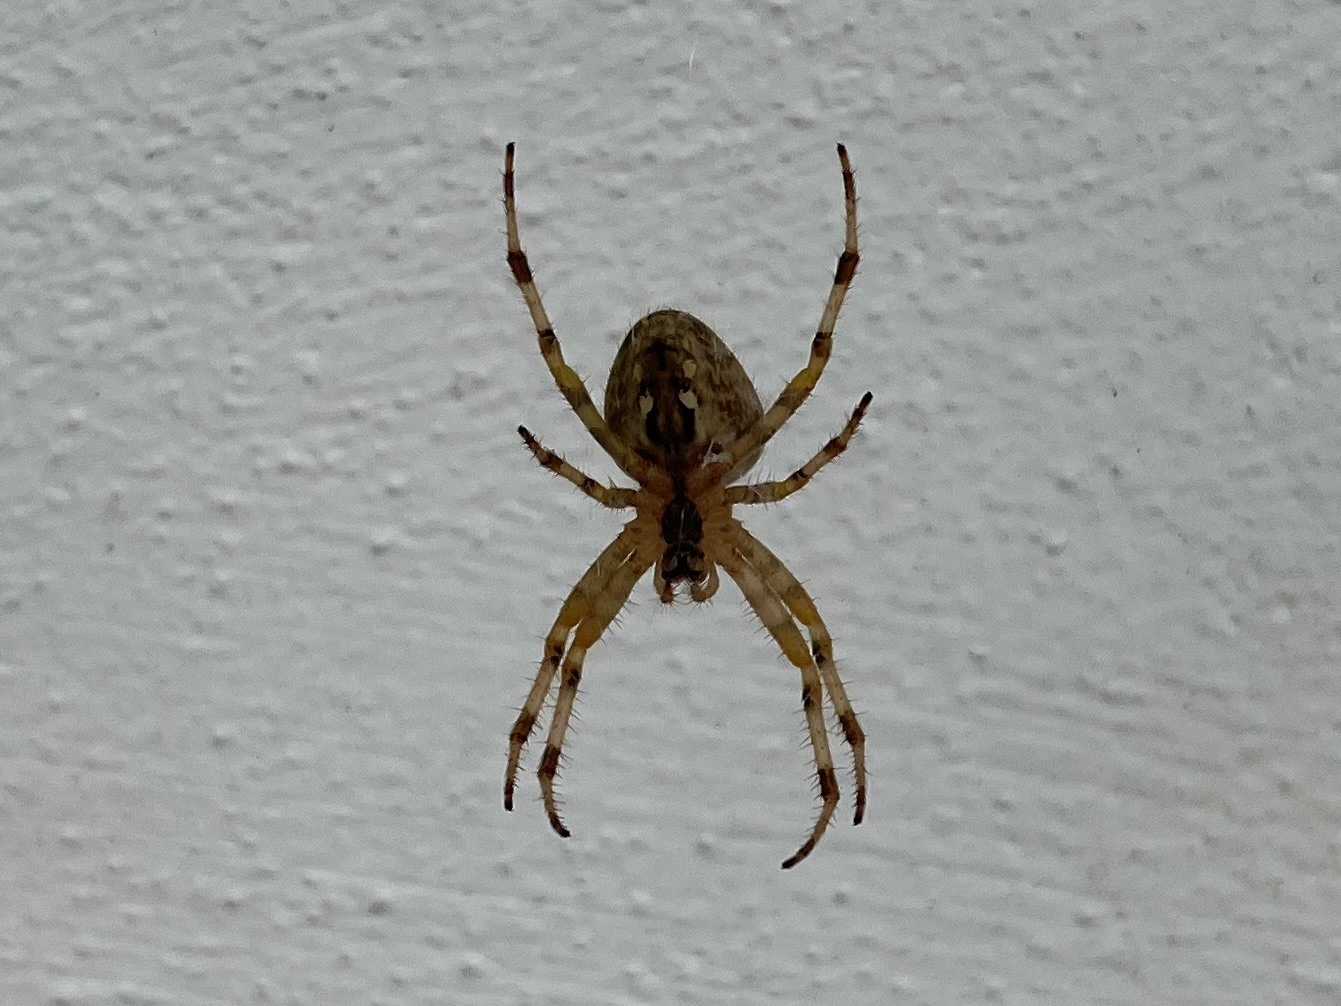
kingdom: Animalia
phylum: Arthropoda
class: Arachnida
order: Araneae
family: Araneidae
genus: Araneus
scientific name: Araneus diadematus
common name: Cross orbweaver
